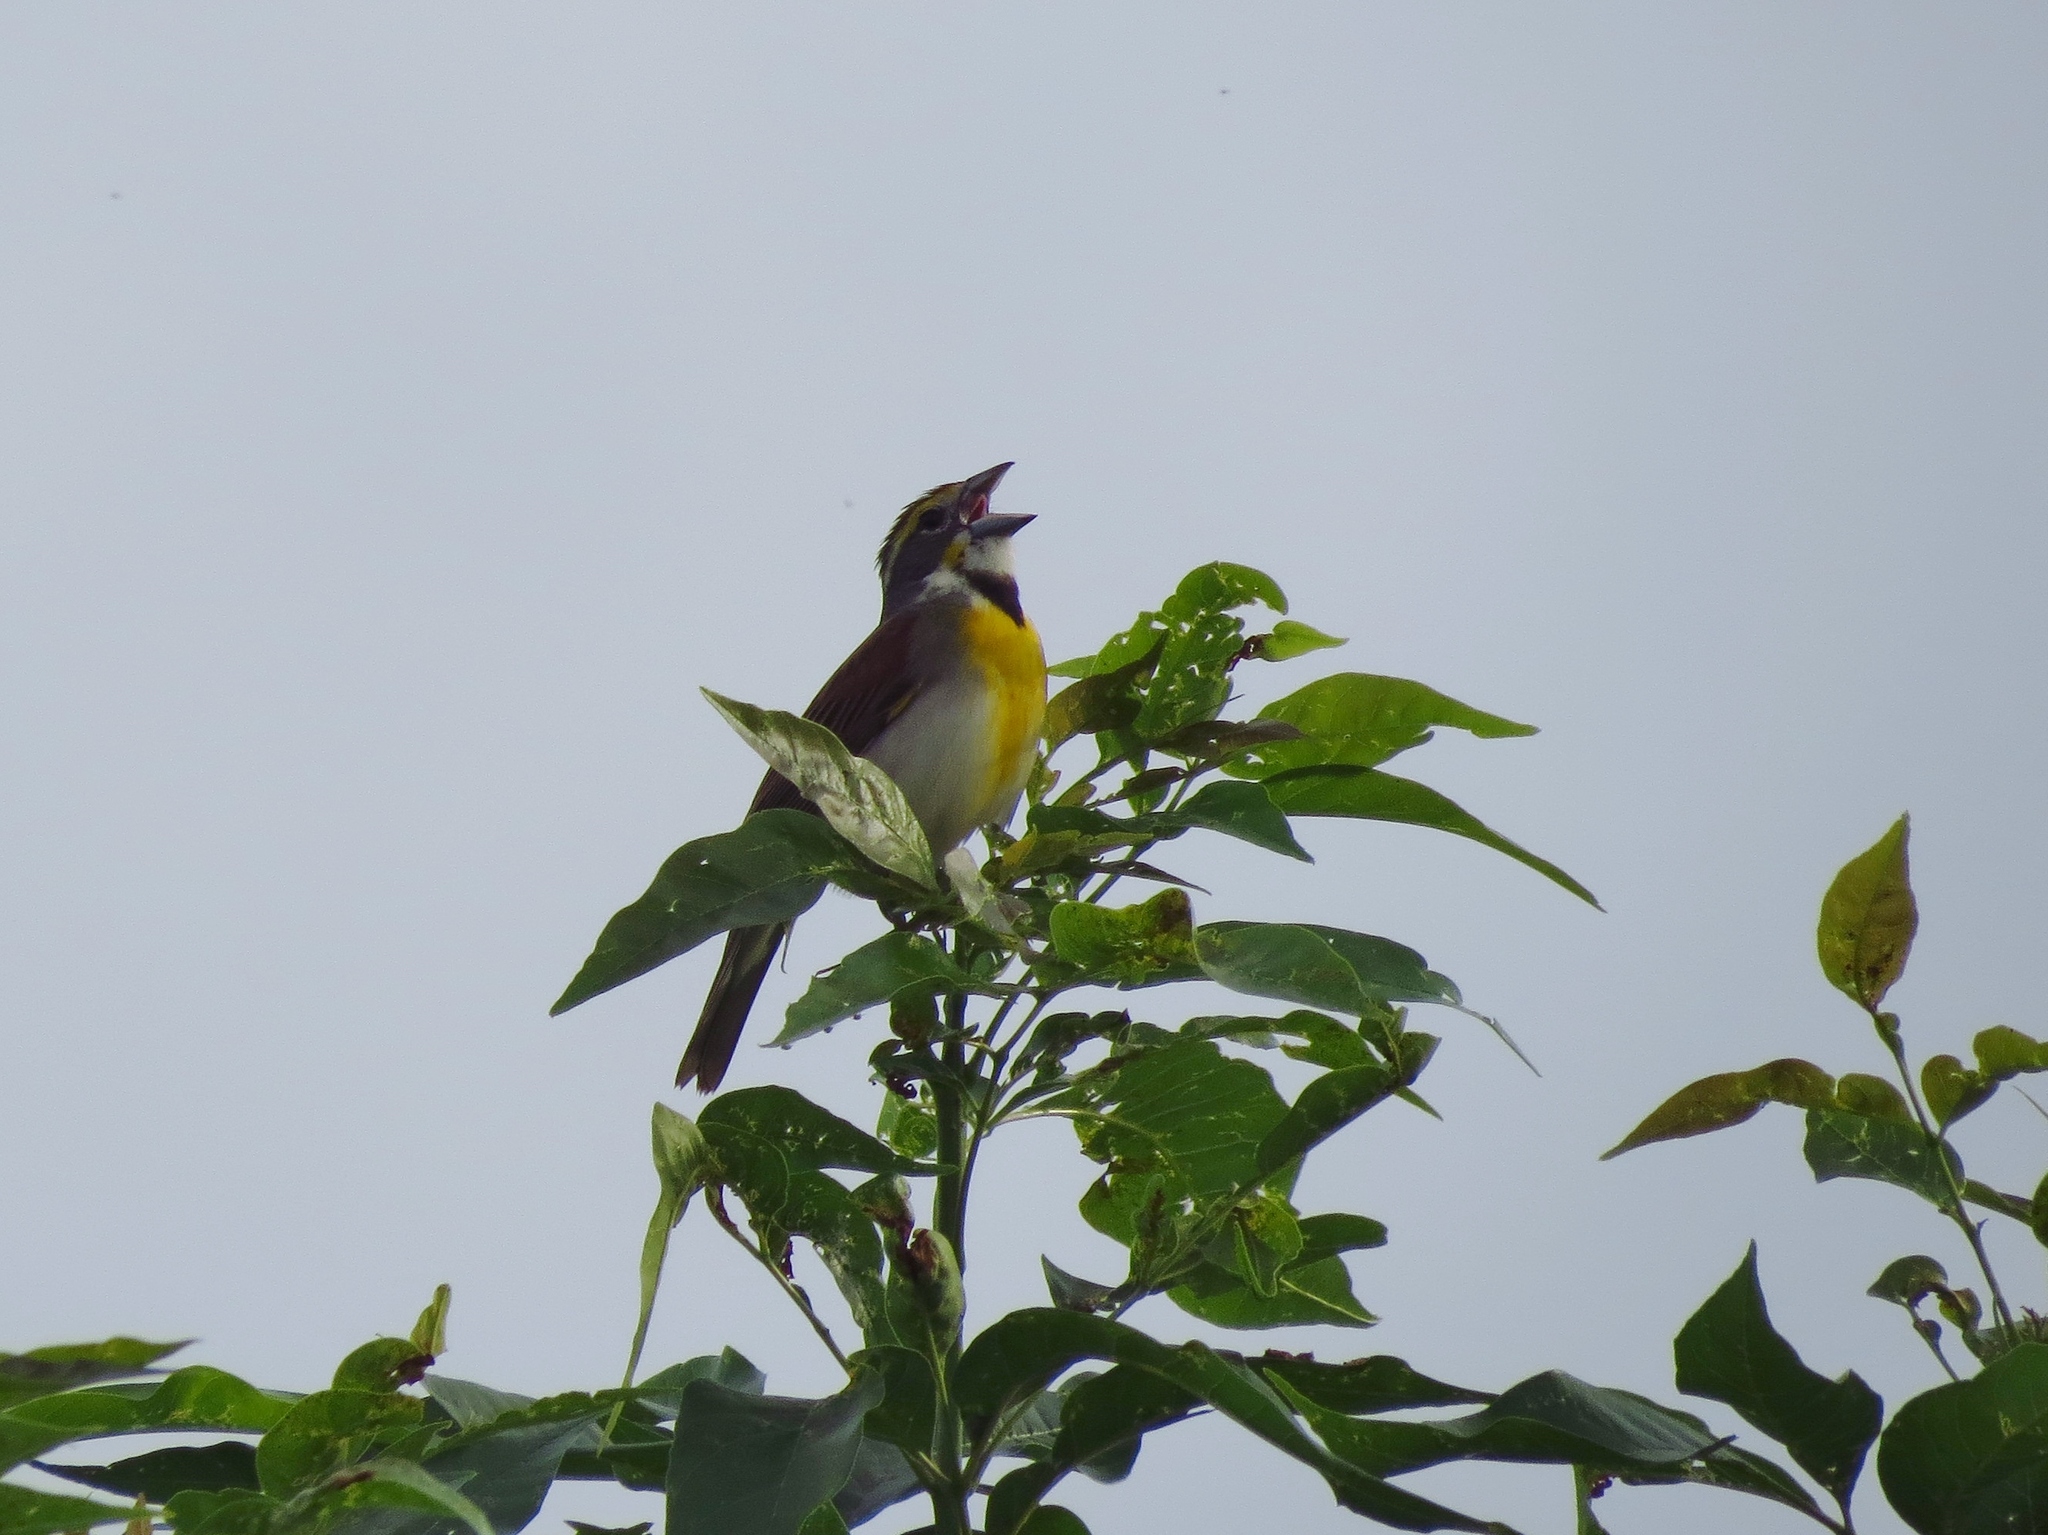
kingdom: Animalia
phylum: Chordata
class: Aves
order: Passeriformes
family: Cardinalidae
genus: Spiza
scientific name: Spiza americana
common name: Dickcissel
